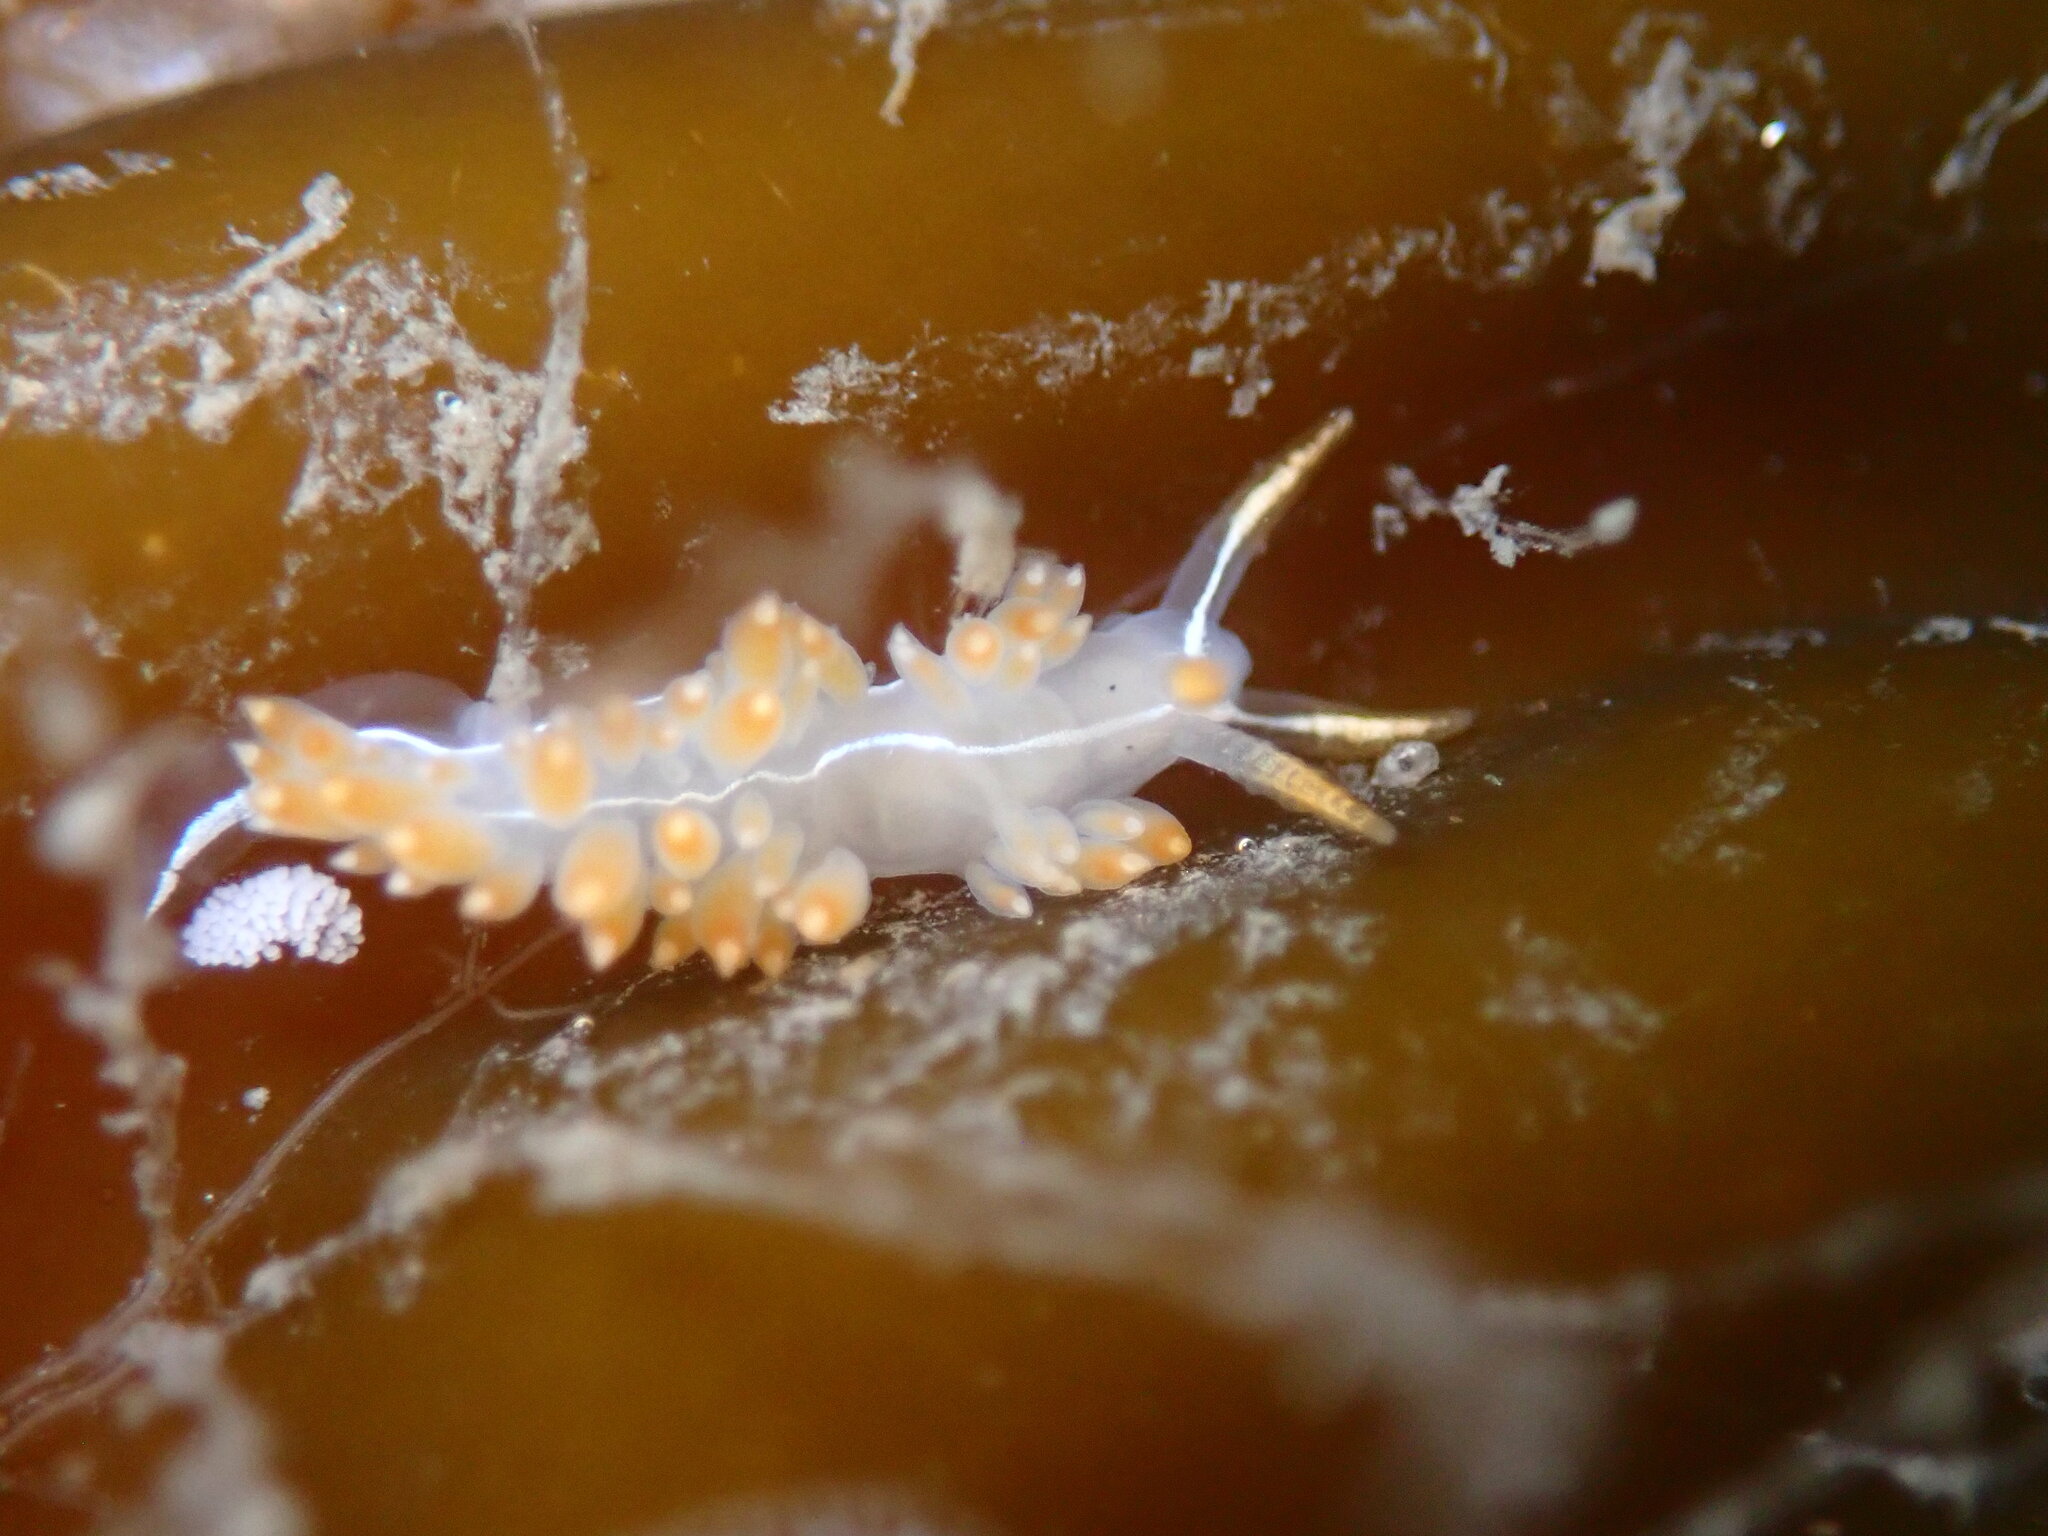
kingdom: Animalia
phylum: Mollusca
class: Gastropoda
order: Nudibranchia
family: Coryphellidae
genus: Coryphella
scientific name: Coryphella trilineata
